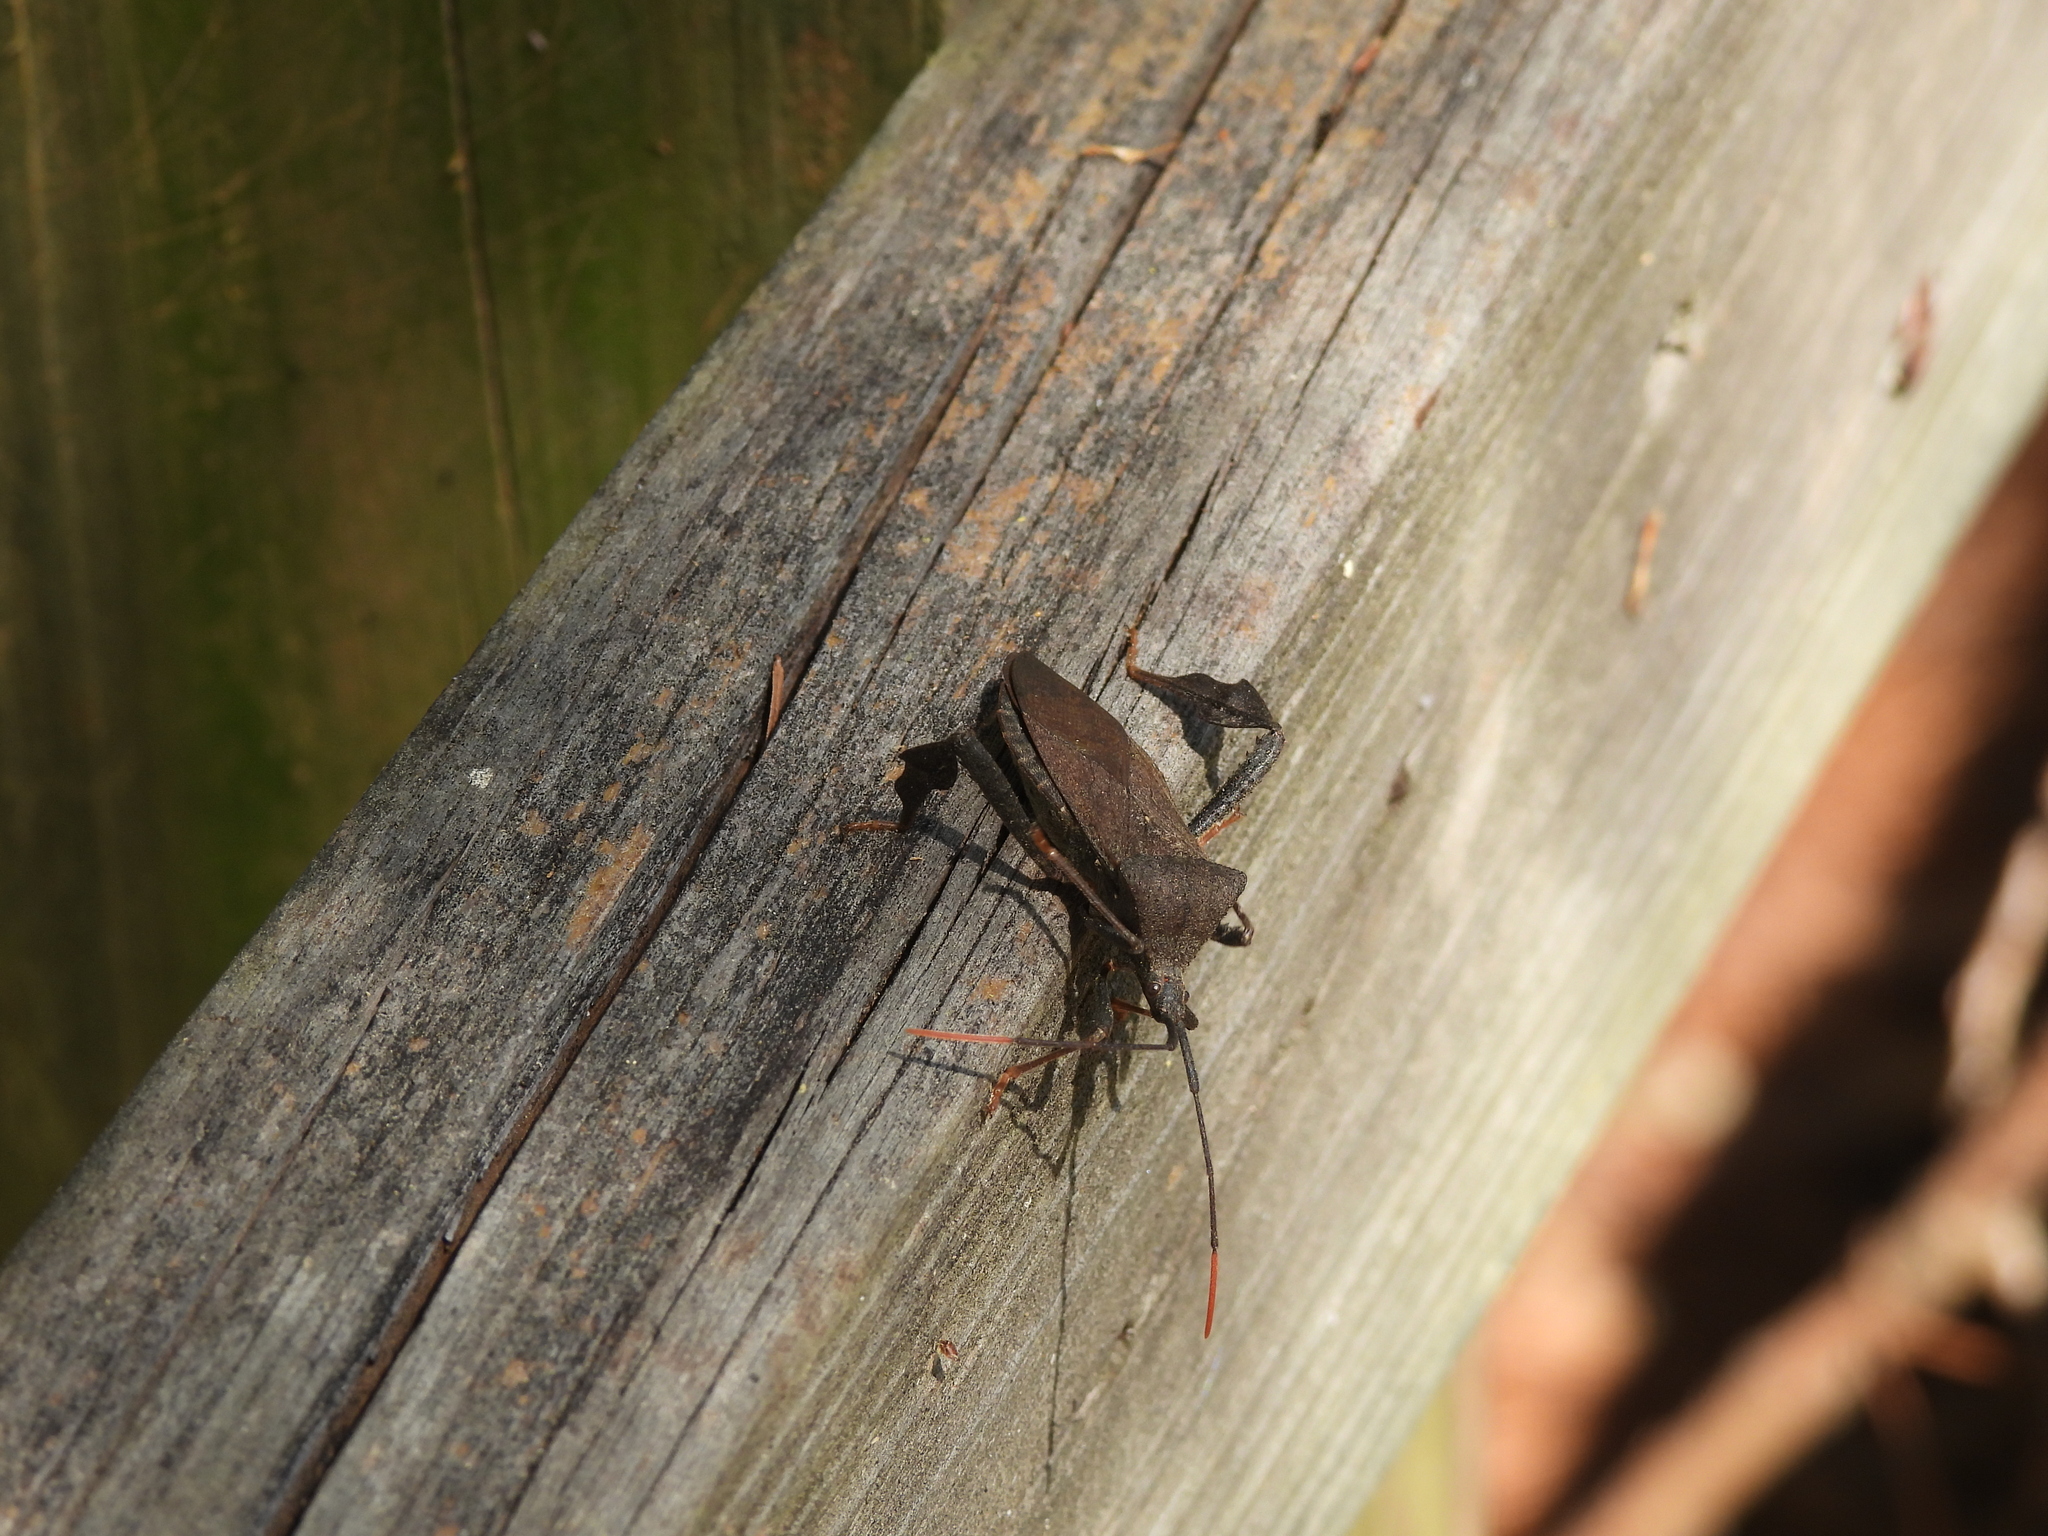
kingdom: Animalia
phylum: Arthropoda
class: Insecta
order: Hemiptera
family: Coreidae
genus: Acanthocephala
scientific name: Acanthocephala terminalis
